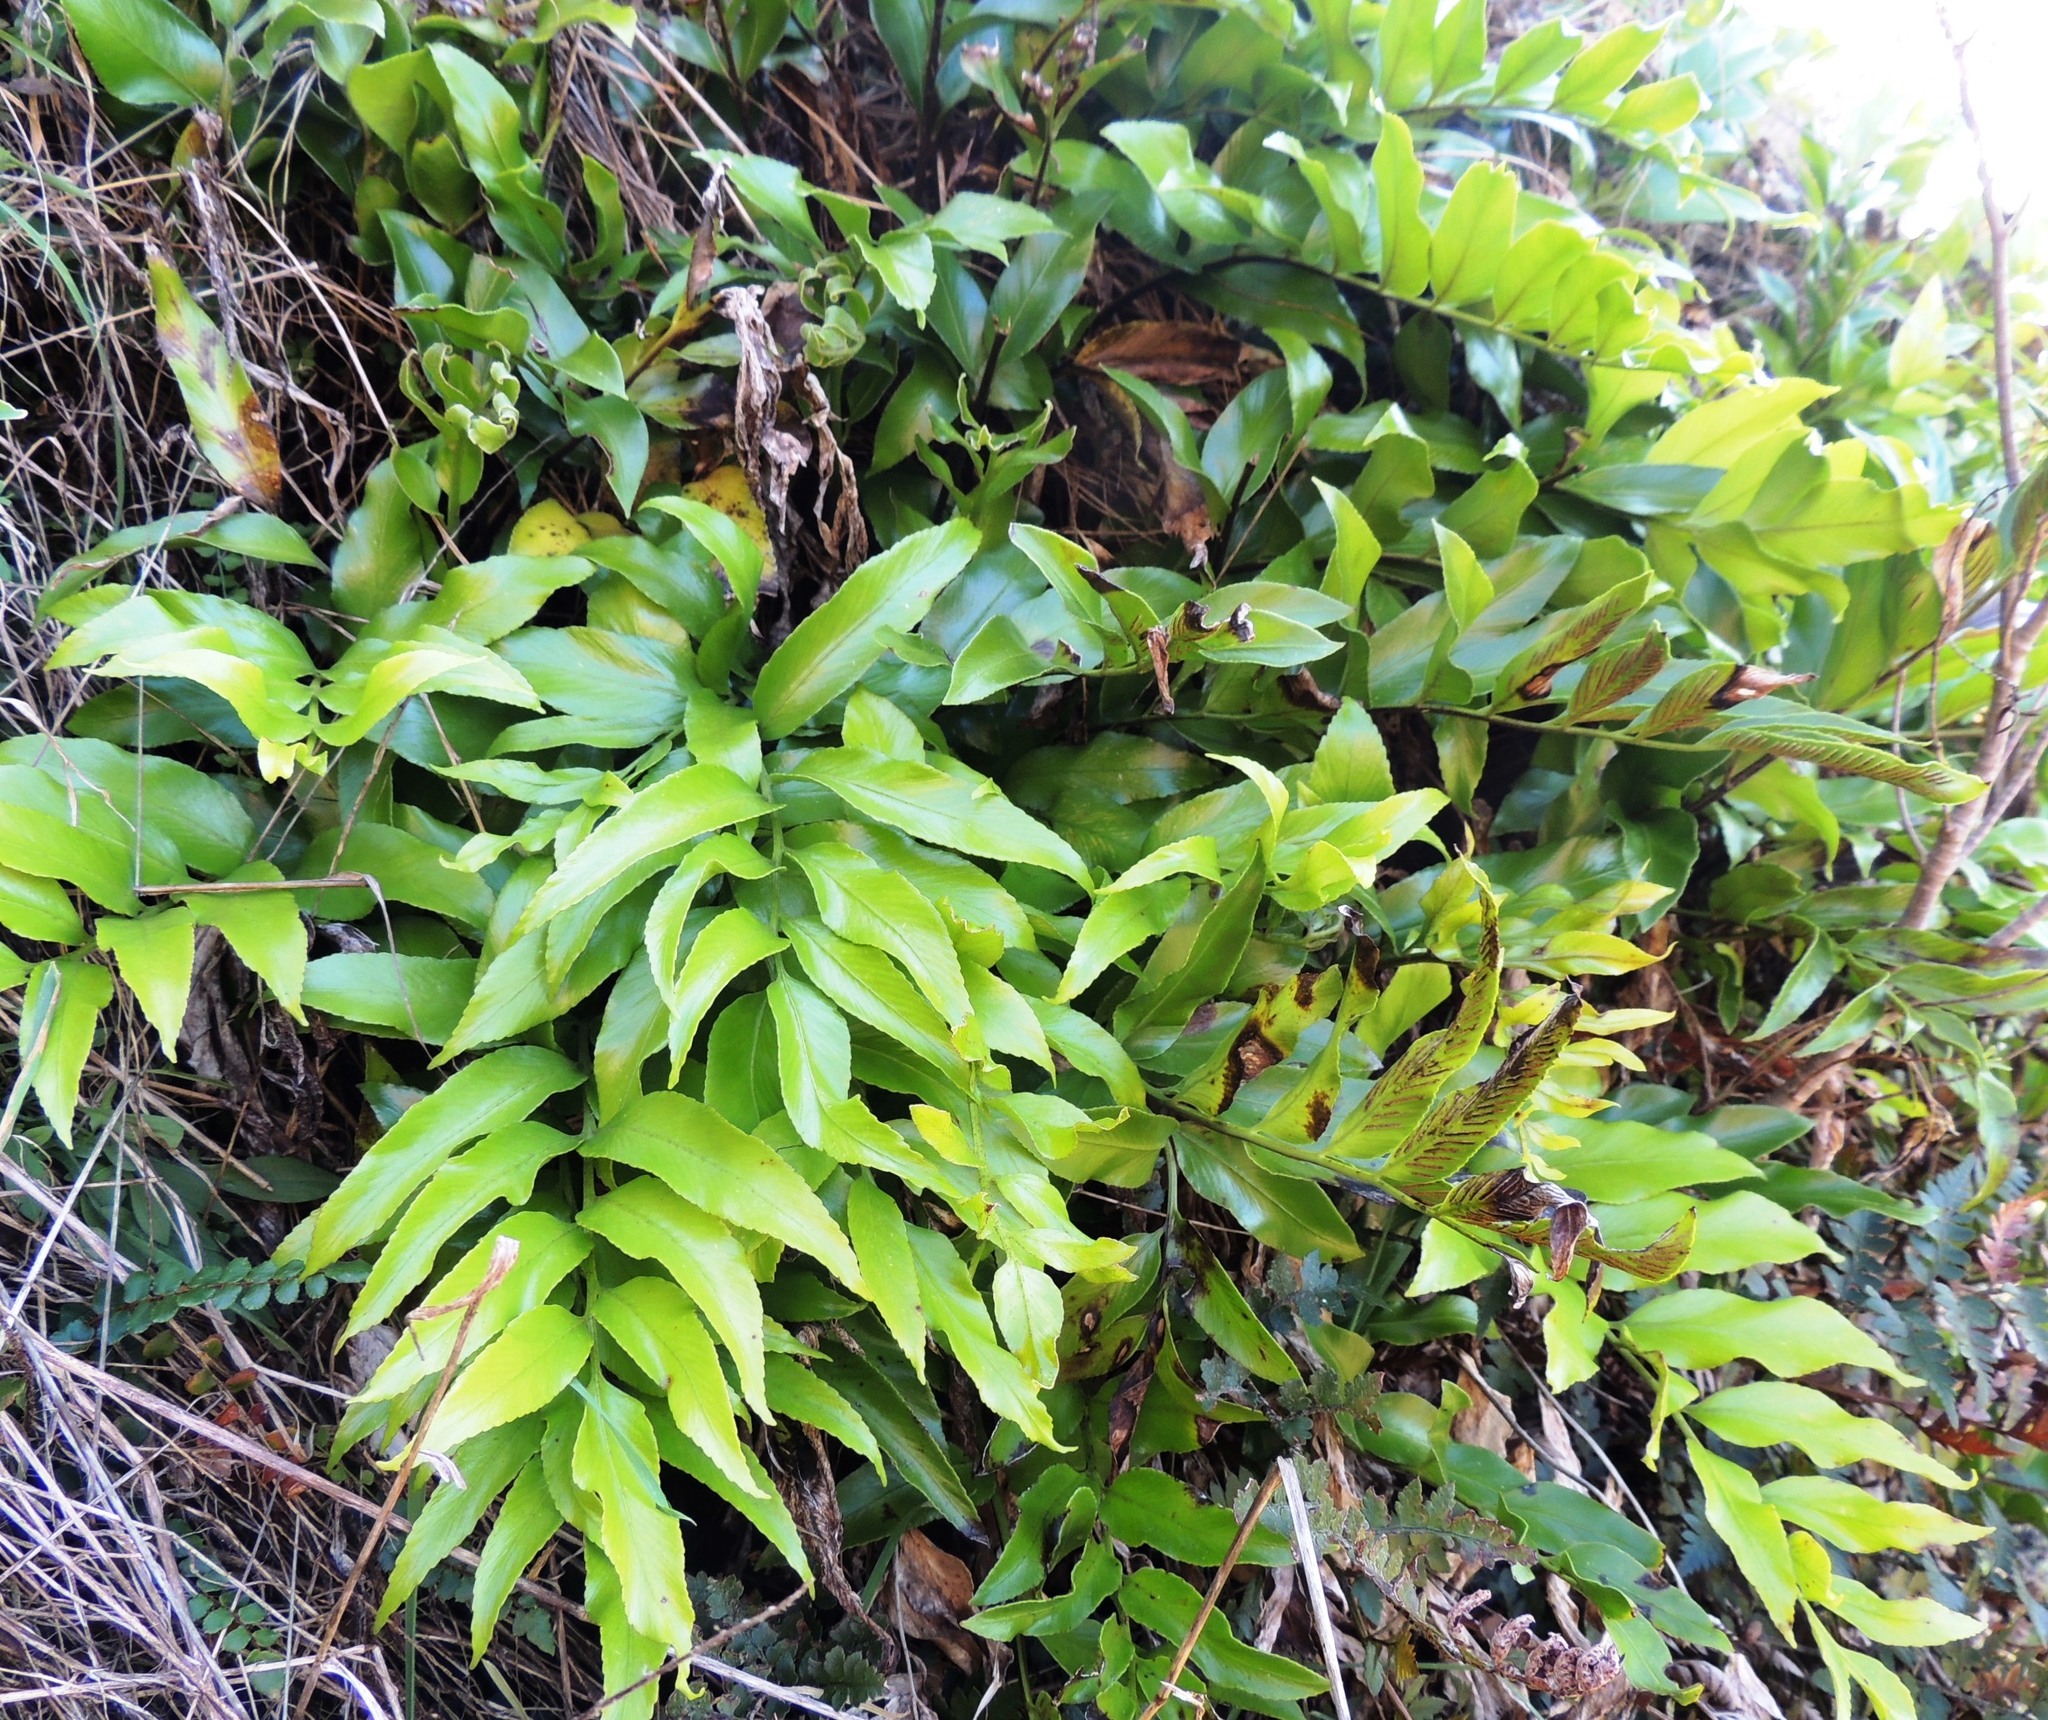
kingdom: Plantae
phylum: Tracheophyta
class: Polypodiopsida
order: Polypodiales
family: Aspleniaceae
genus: Asplenium
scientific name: Asplenium oblongifolium
